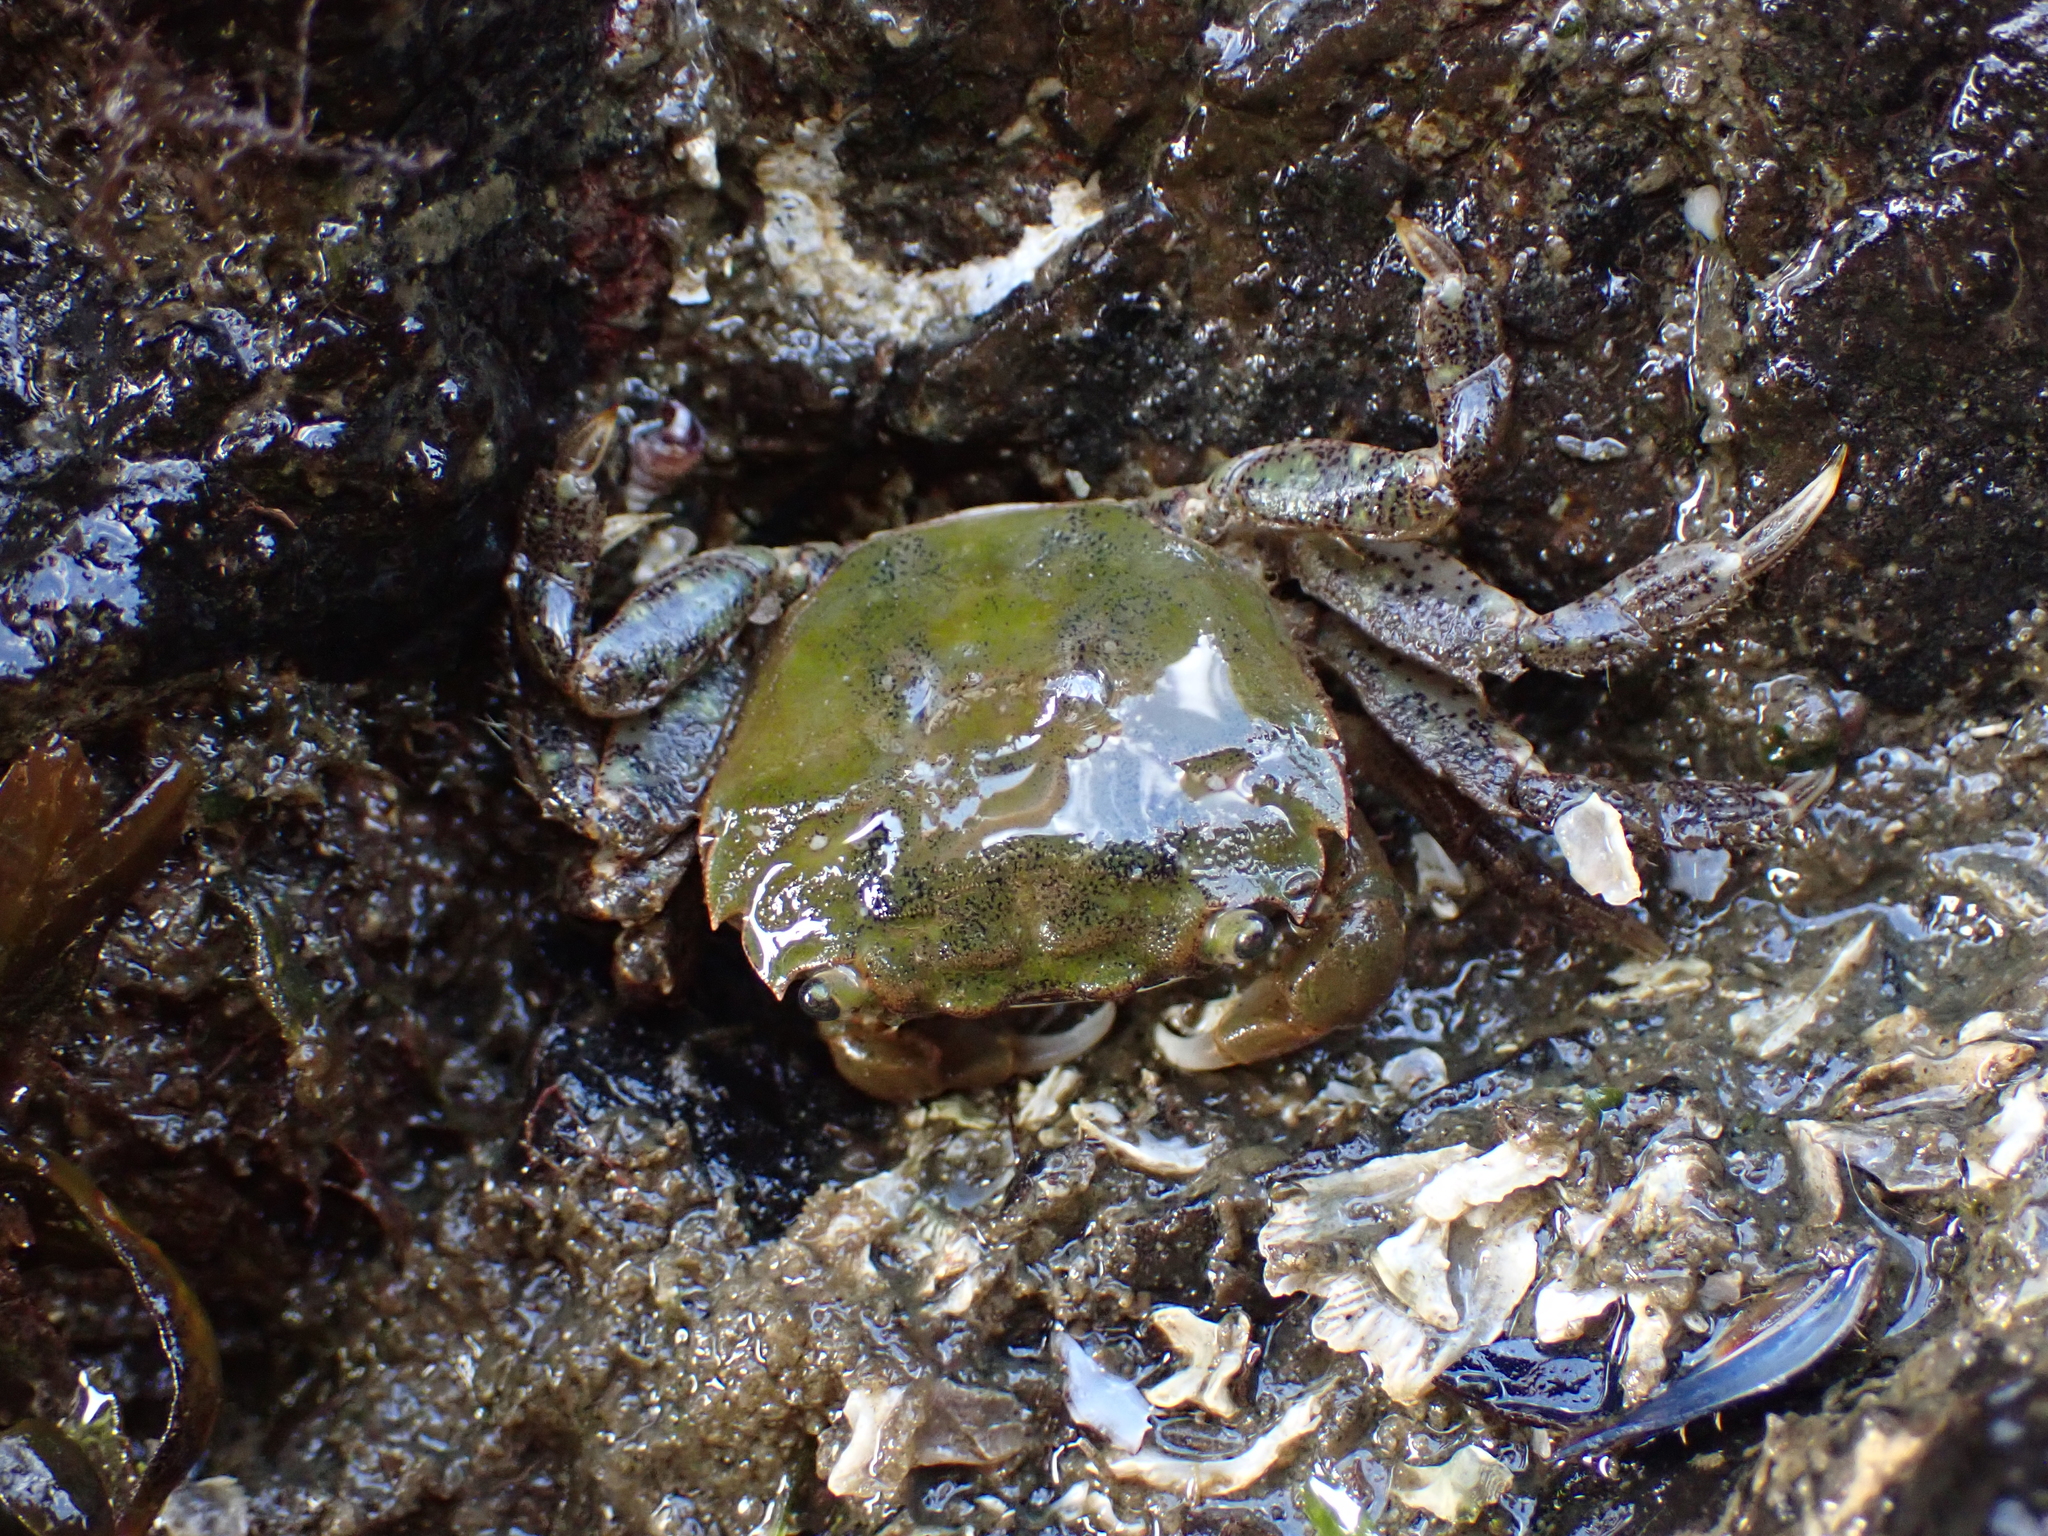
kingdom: Animalia
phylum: Arthropoda
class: Malacostraca
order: Decapoda
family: Varunidae
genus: Hemigrapsus
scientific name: Hemigrapsus oregonensis
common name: Yellow shore crab
